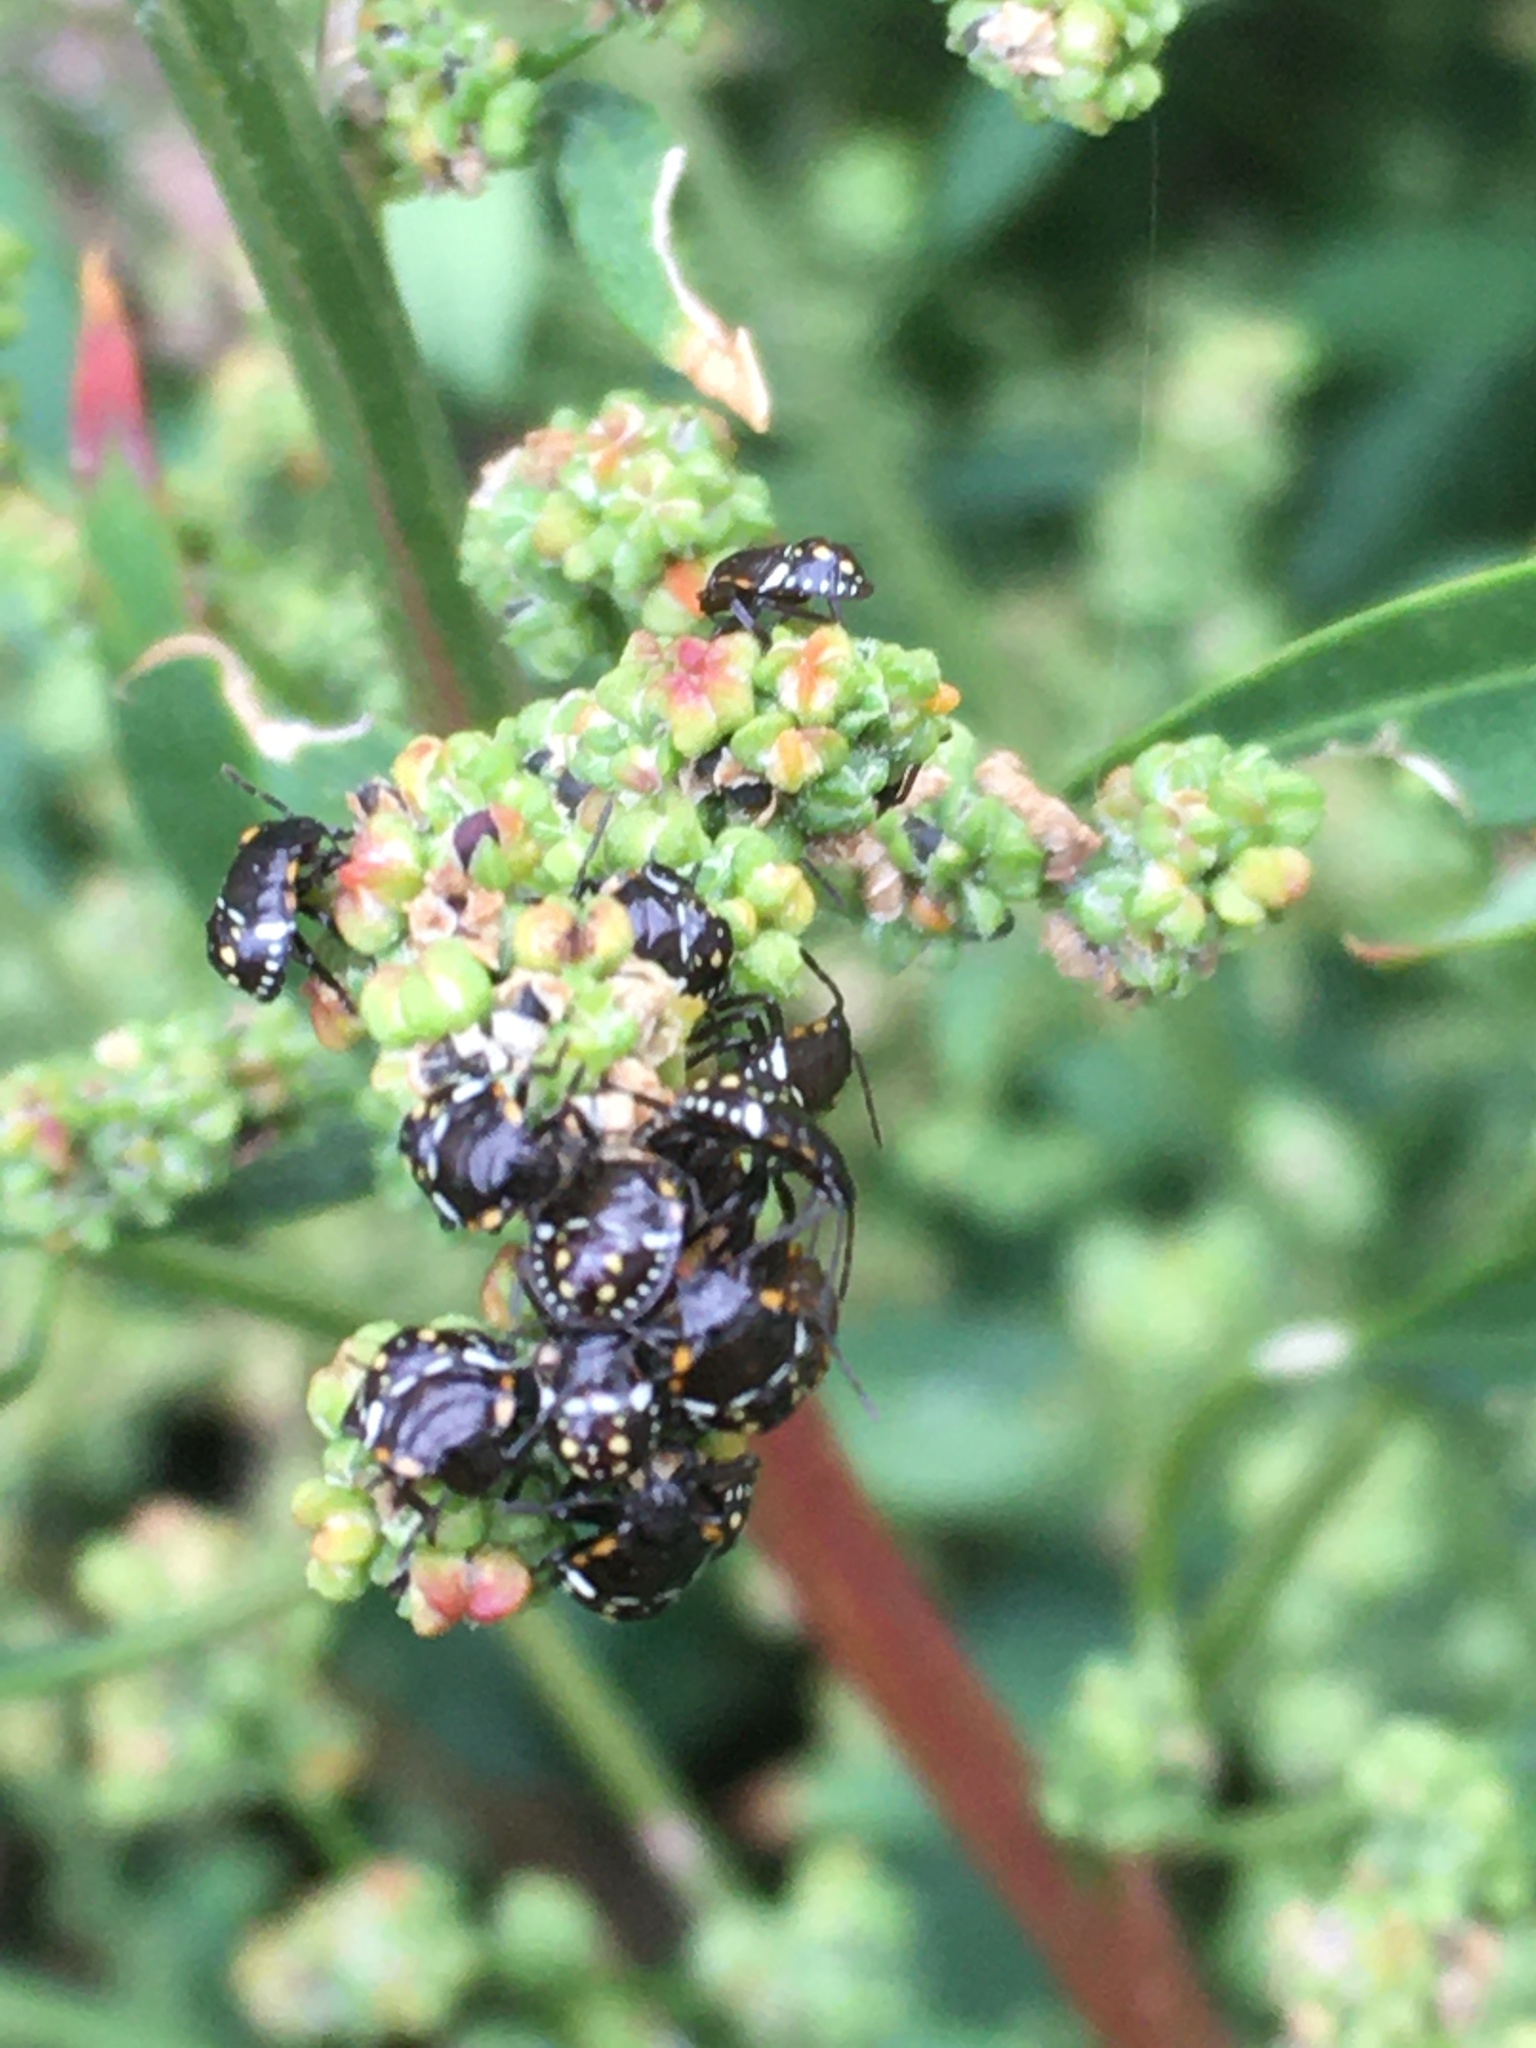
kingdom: Animalia
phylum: Arthropoda
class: Insecta
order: Hemiptera
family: Pentatomidae
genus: Nezara
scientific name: Nezara viridula
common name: Southern green stink bug
